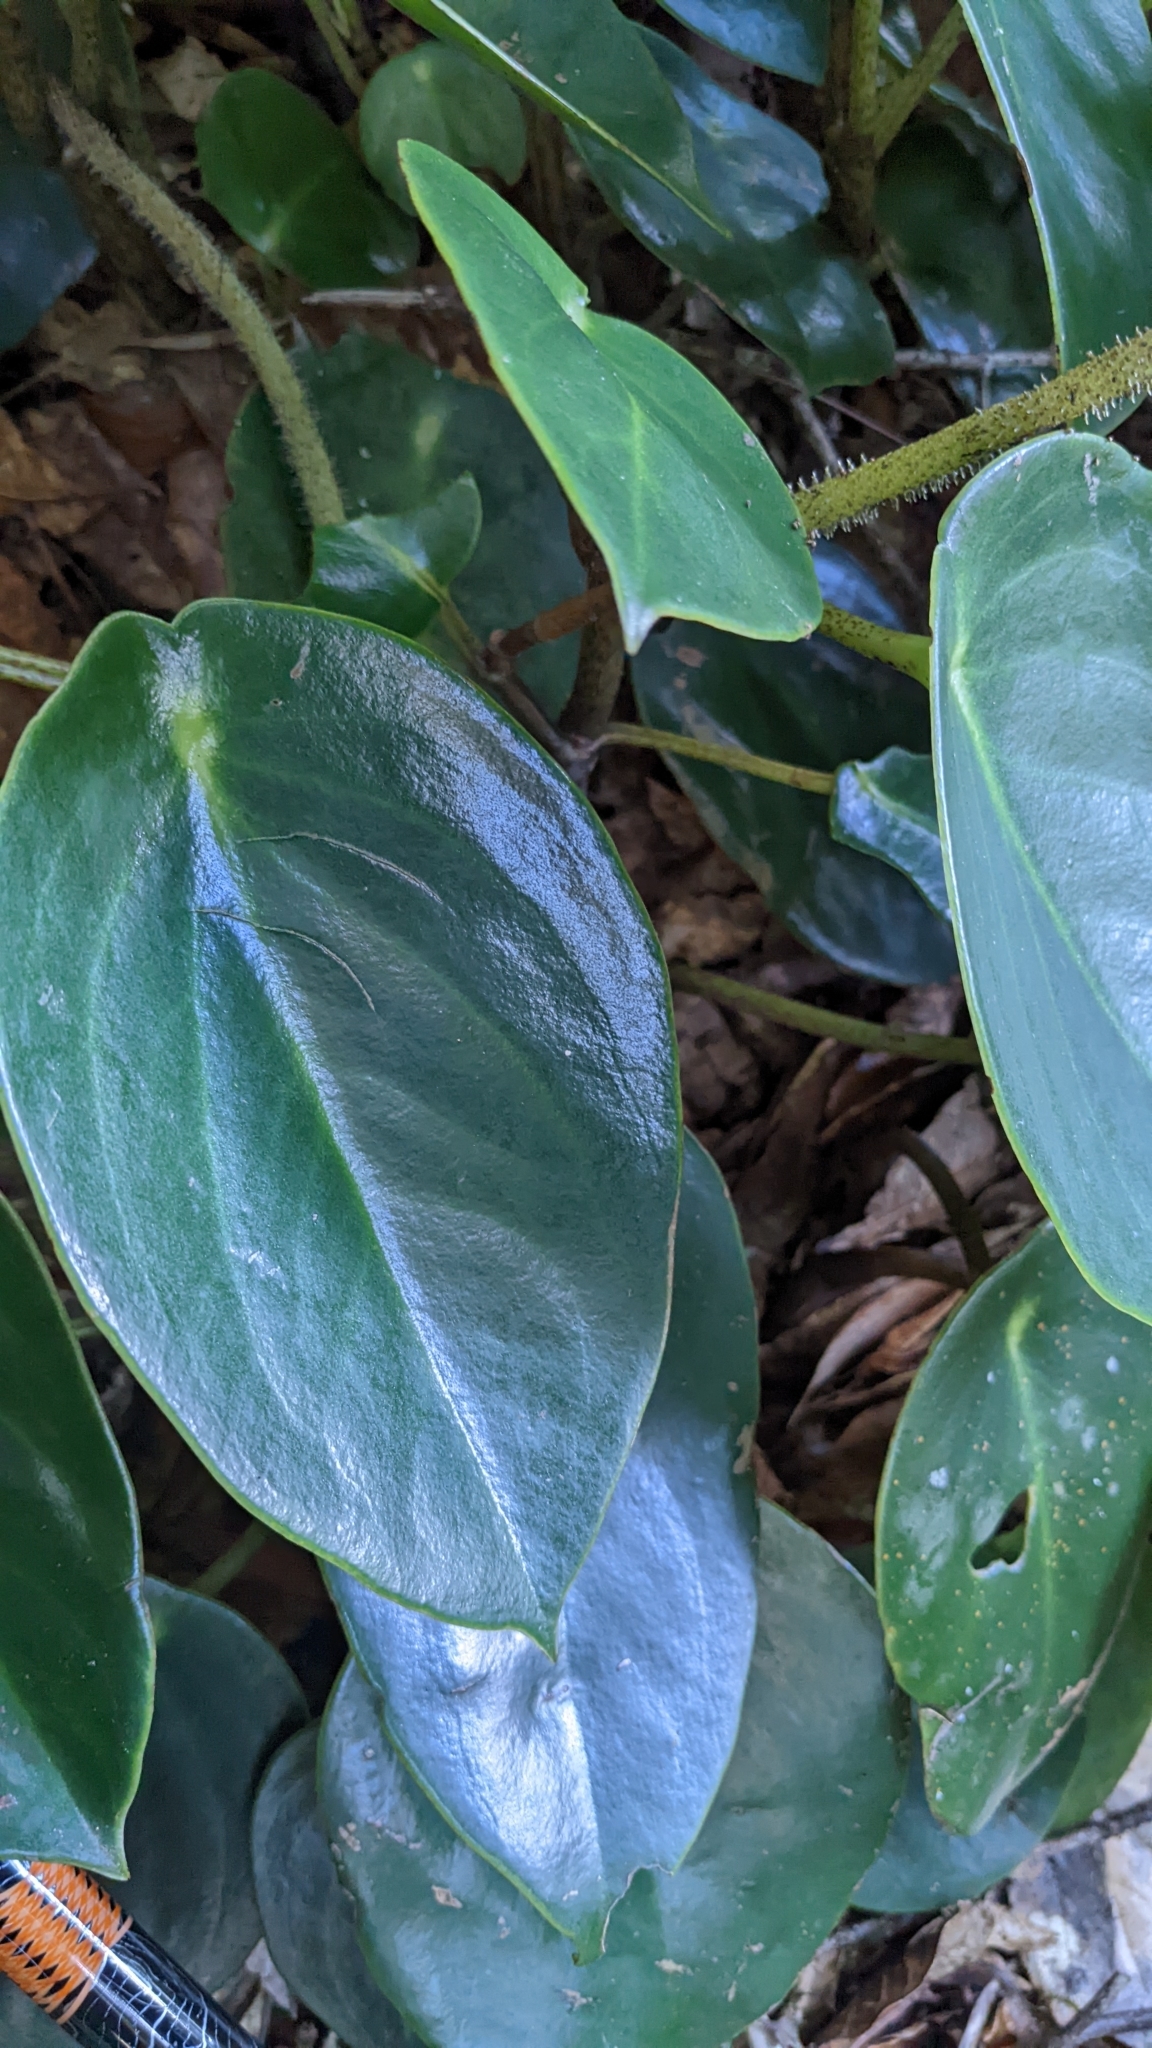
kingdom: Plantae
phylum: Tracheophyta
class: Magnoliopsida
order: Piperales
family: Piperaceae
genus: Peperomia
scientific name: Peperomia maculosa
